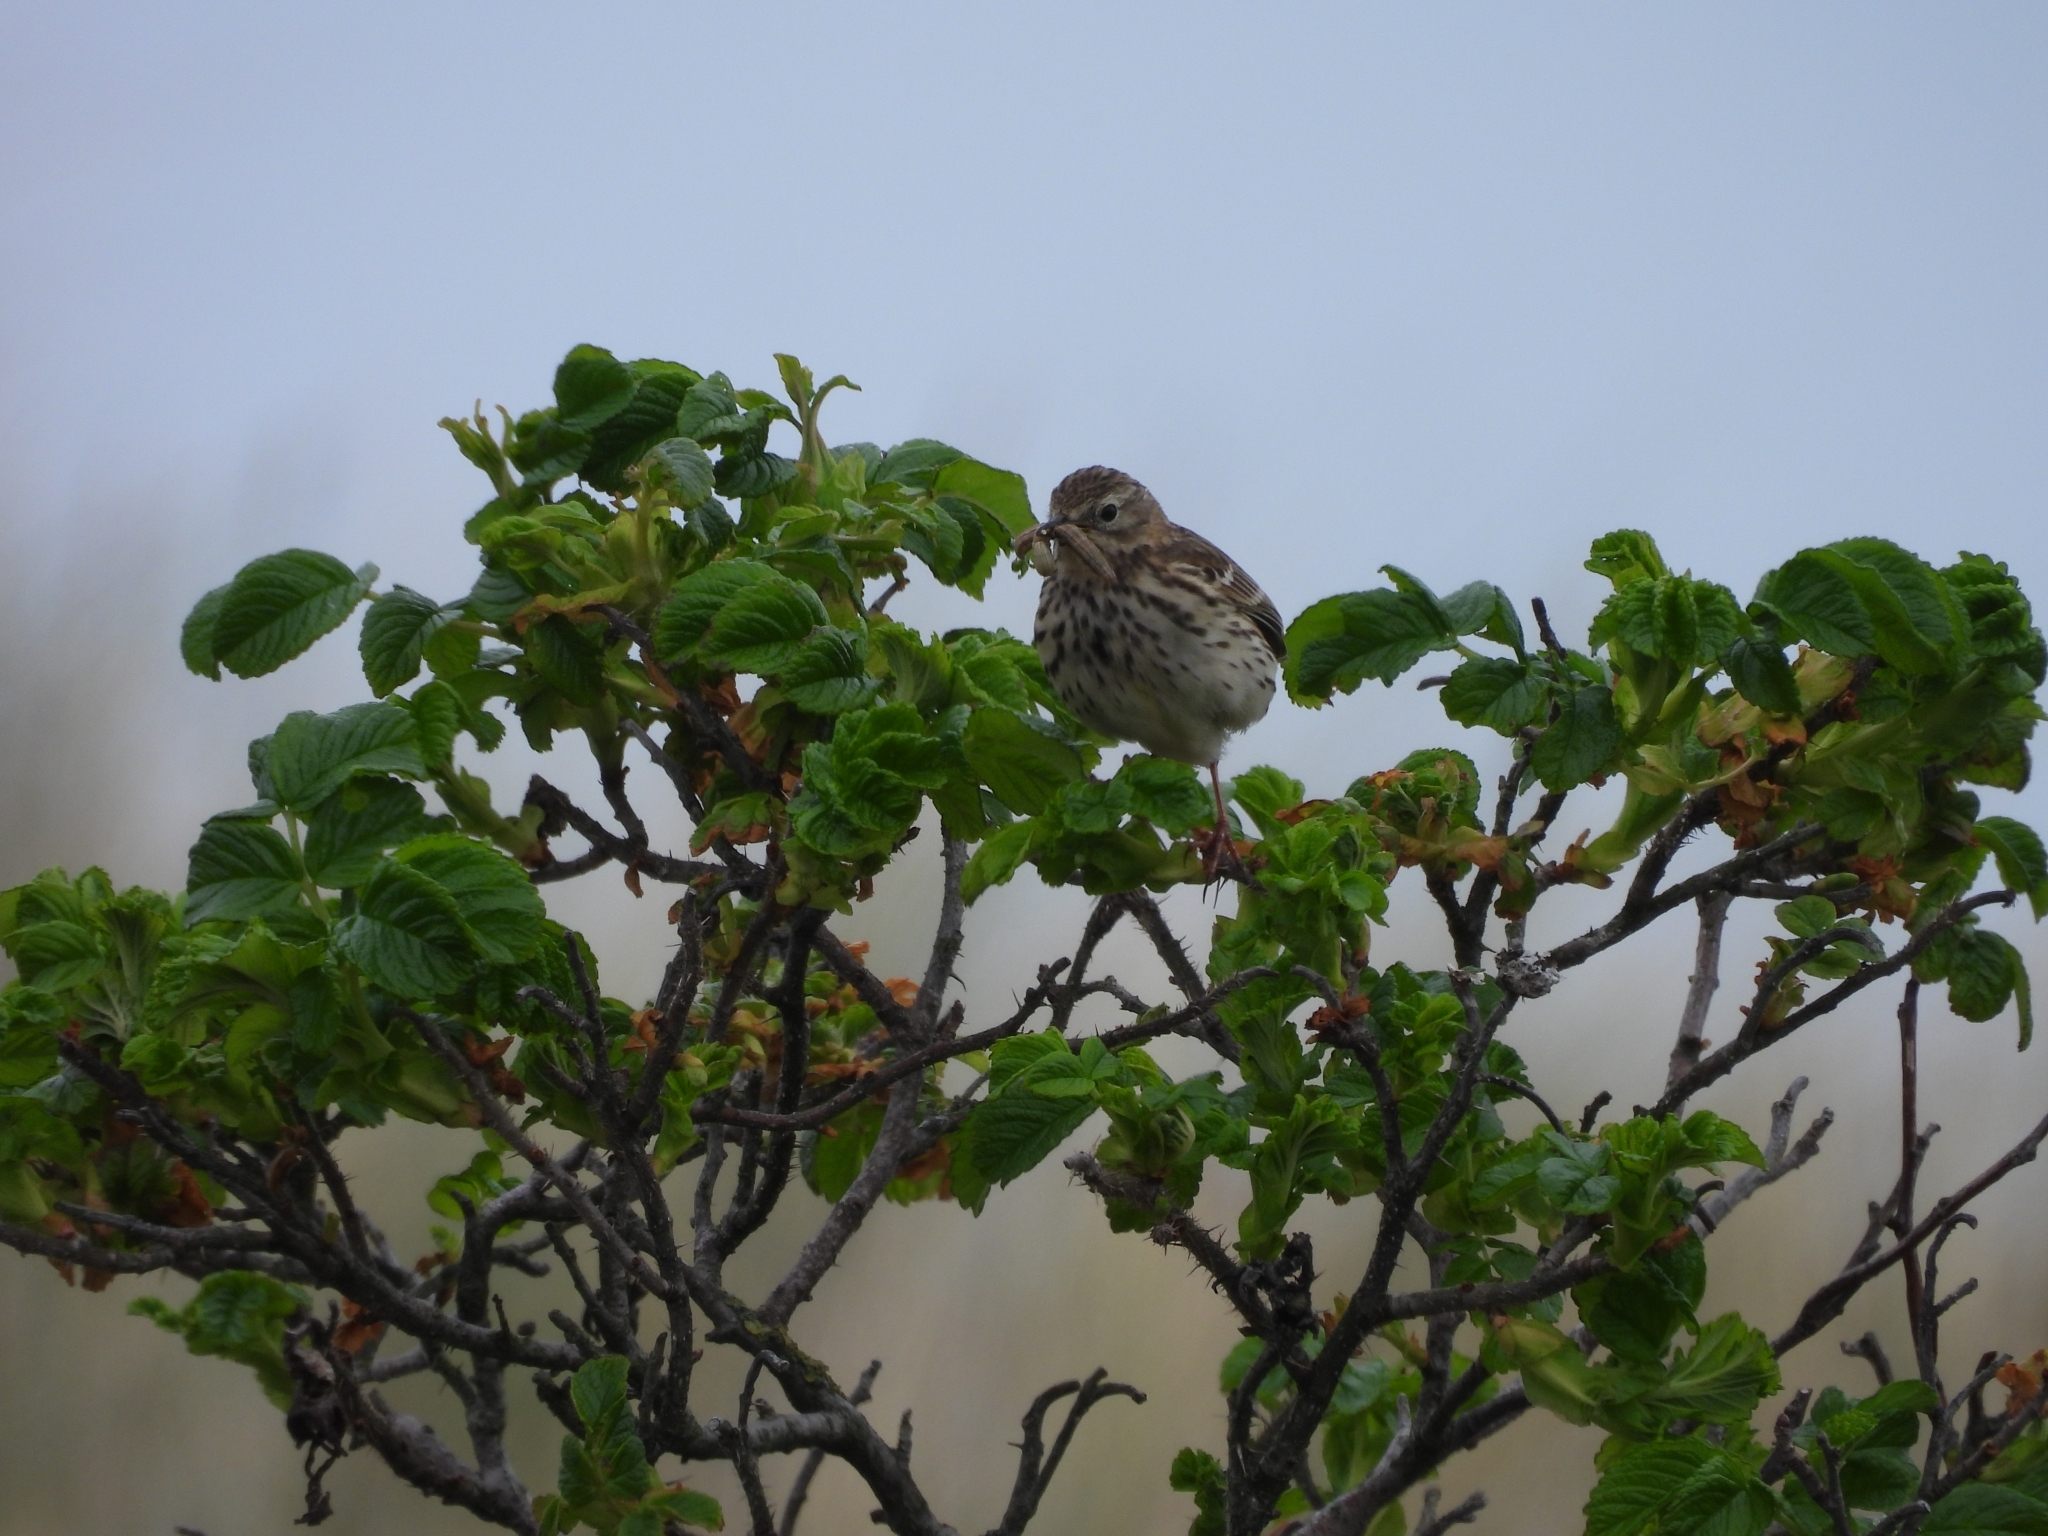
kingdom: Animalia
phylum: Chordata
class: Aves
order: Passeriformes
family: Motacillidae
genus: Anthus
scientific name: Anthus pratensis
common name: Meadow pipit
